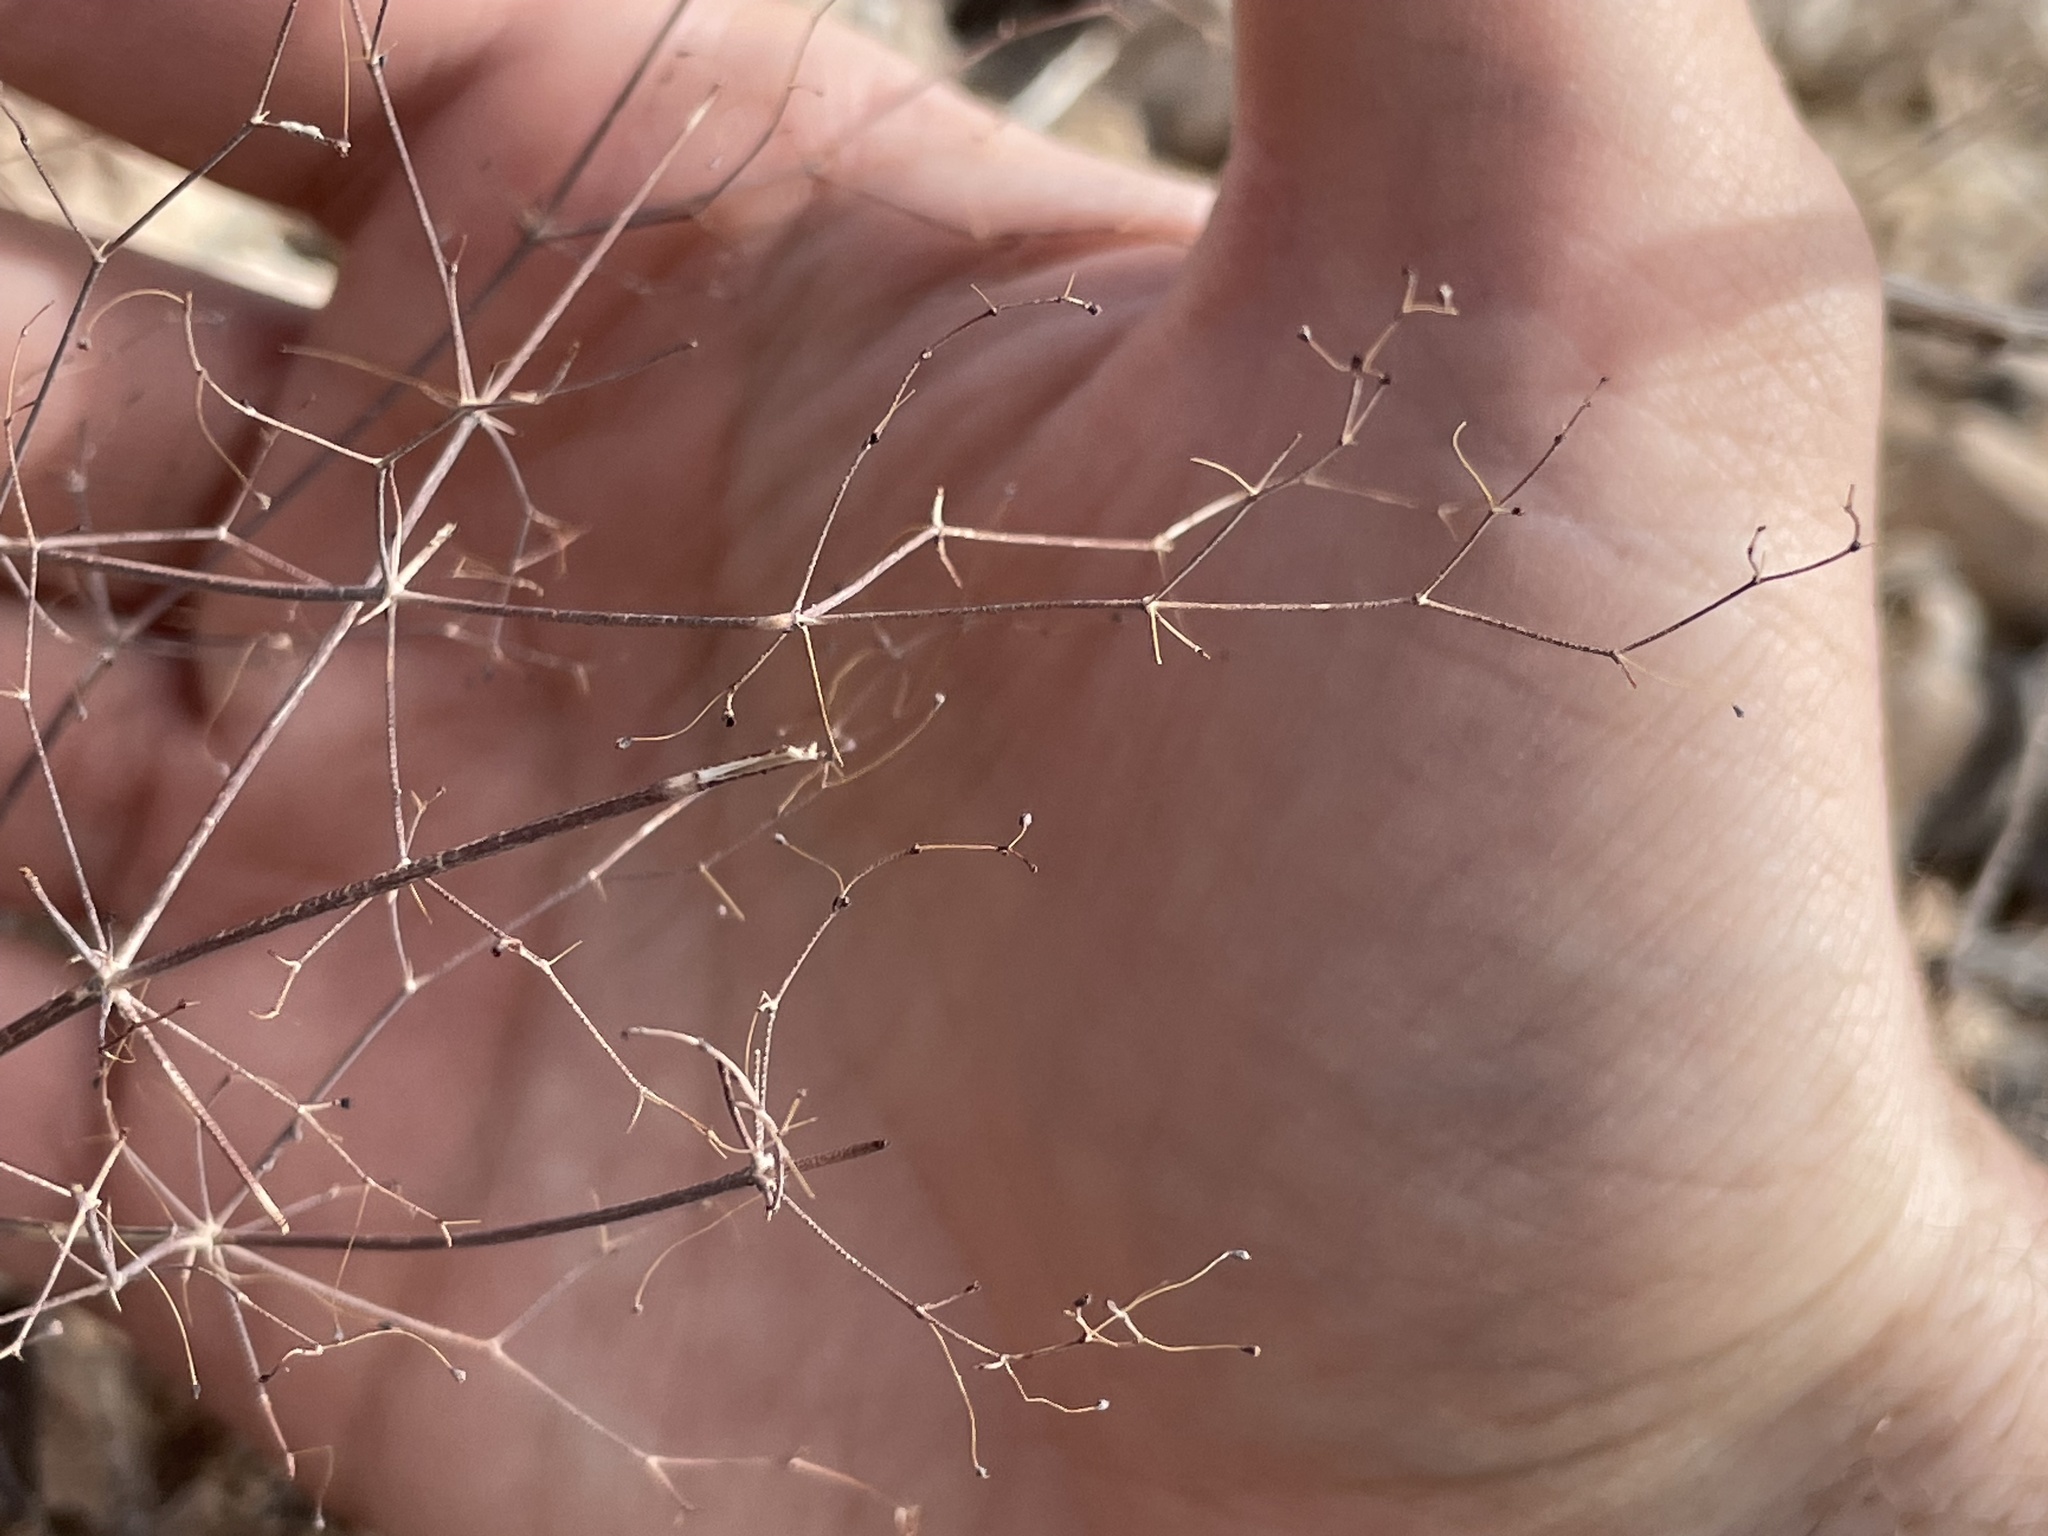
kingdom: Plantae
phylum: Tracheophyta
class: Magnoliopsida
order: Caryophyllales
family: Polygonaceae
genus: Eriogonum
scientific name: Eriogonum trichopes
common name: Little desert trumpet
